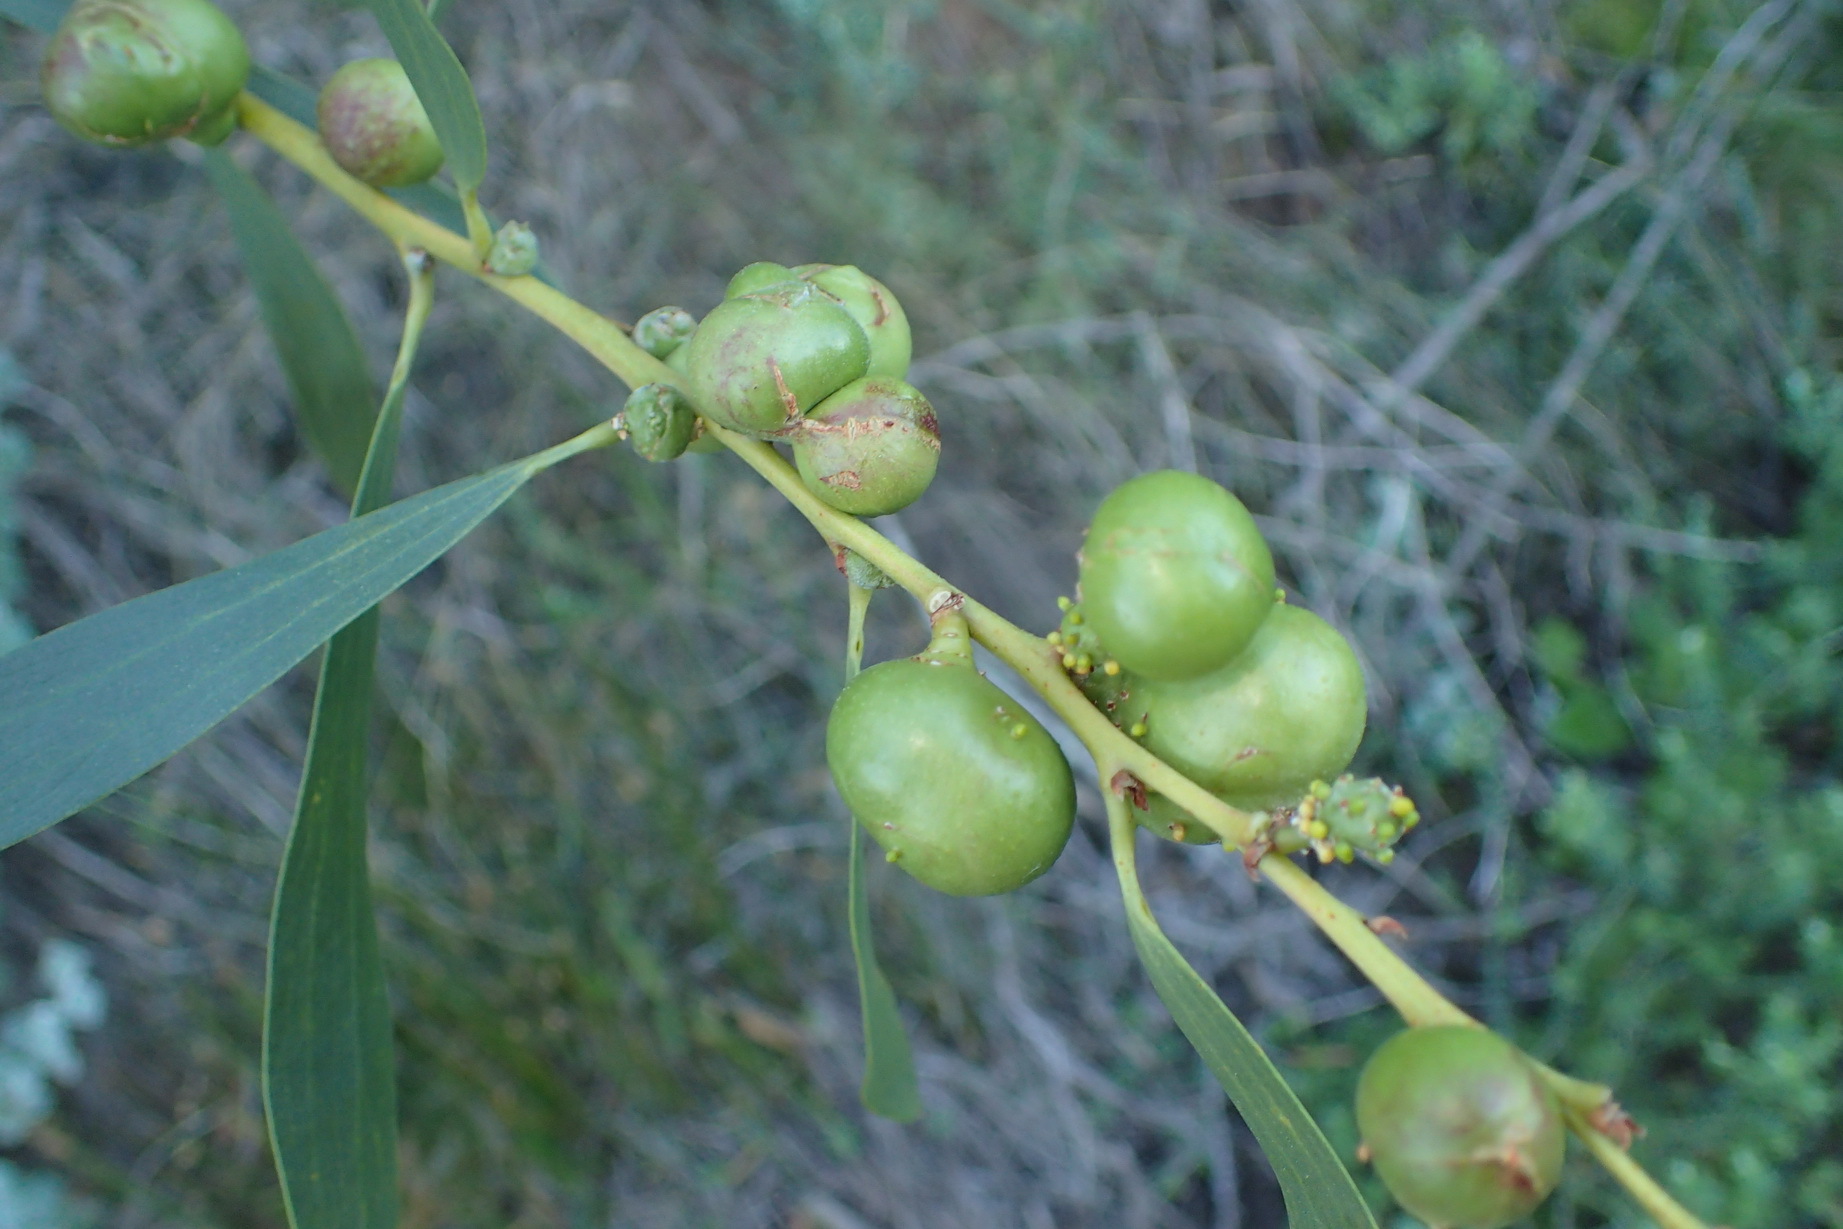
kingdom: Animalia
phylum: Arthropoda
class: Insecta
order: Hymenoptera
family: Pteromalidae
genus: Trichilogaster
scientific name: Trichilogaster acaciaelongifoliae
